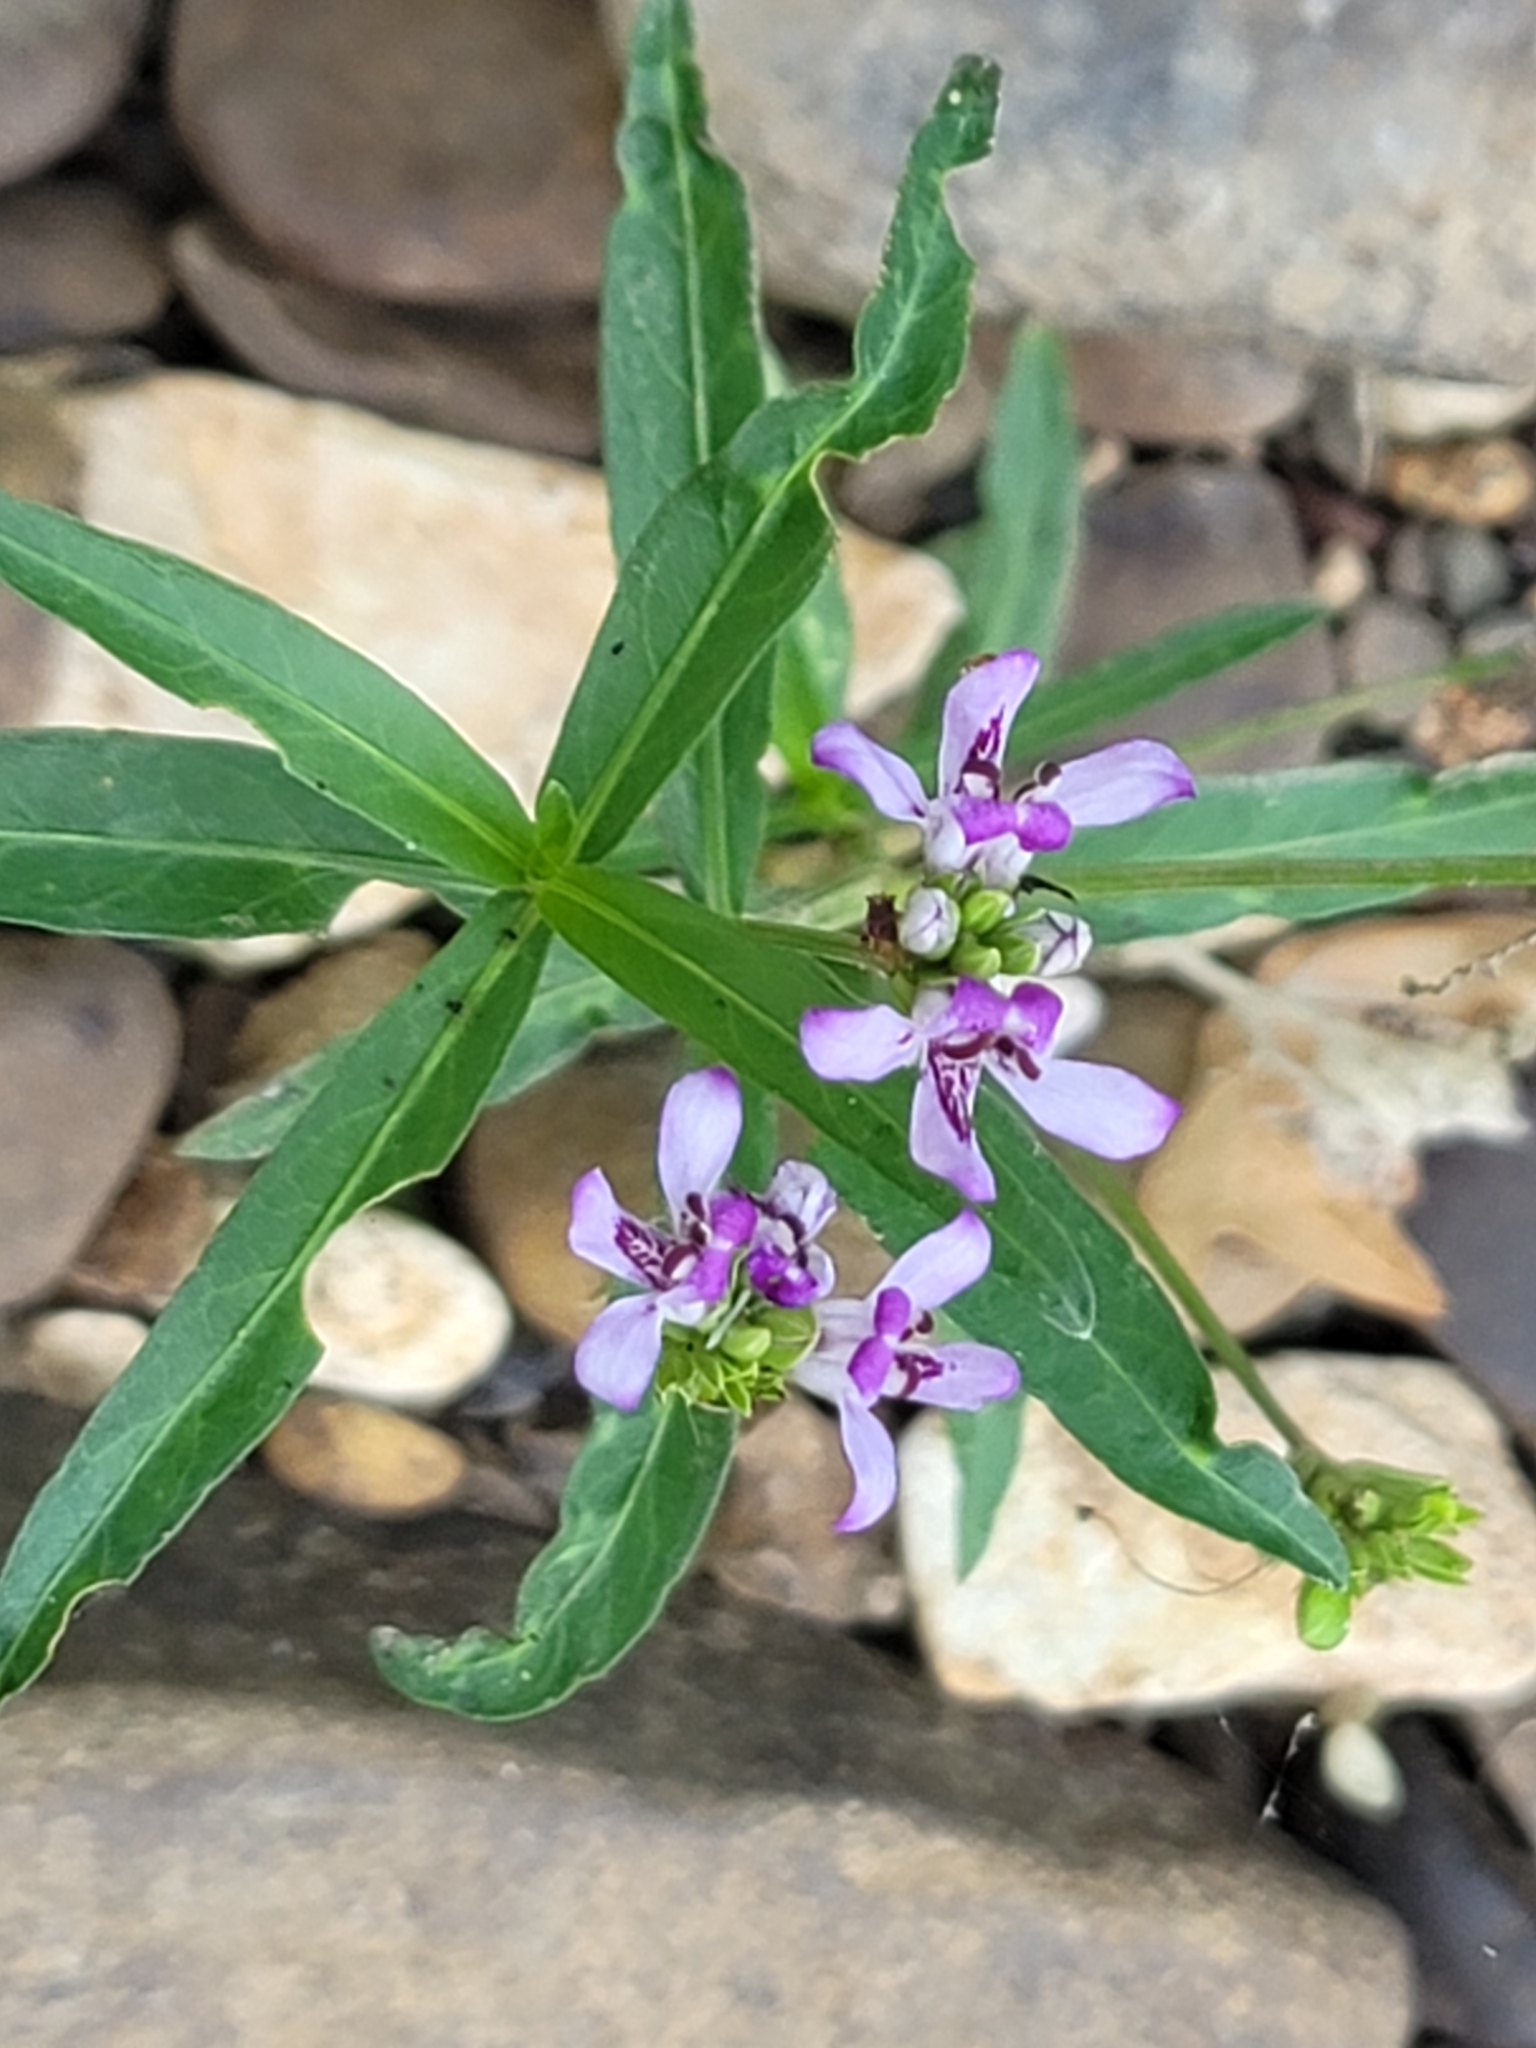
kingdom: Plantae
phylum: Tracheophyta
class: Magnoliopsida
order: Lamiales
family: Acanthaceae
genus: Dianthera
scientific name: Dianthera americana
